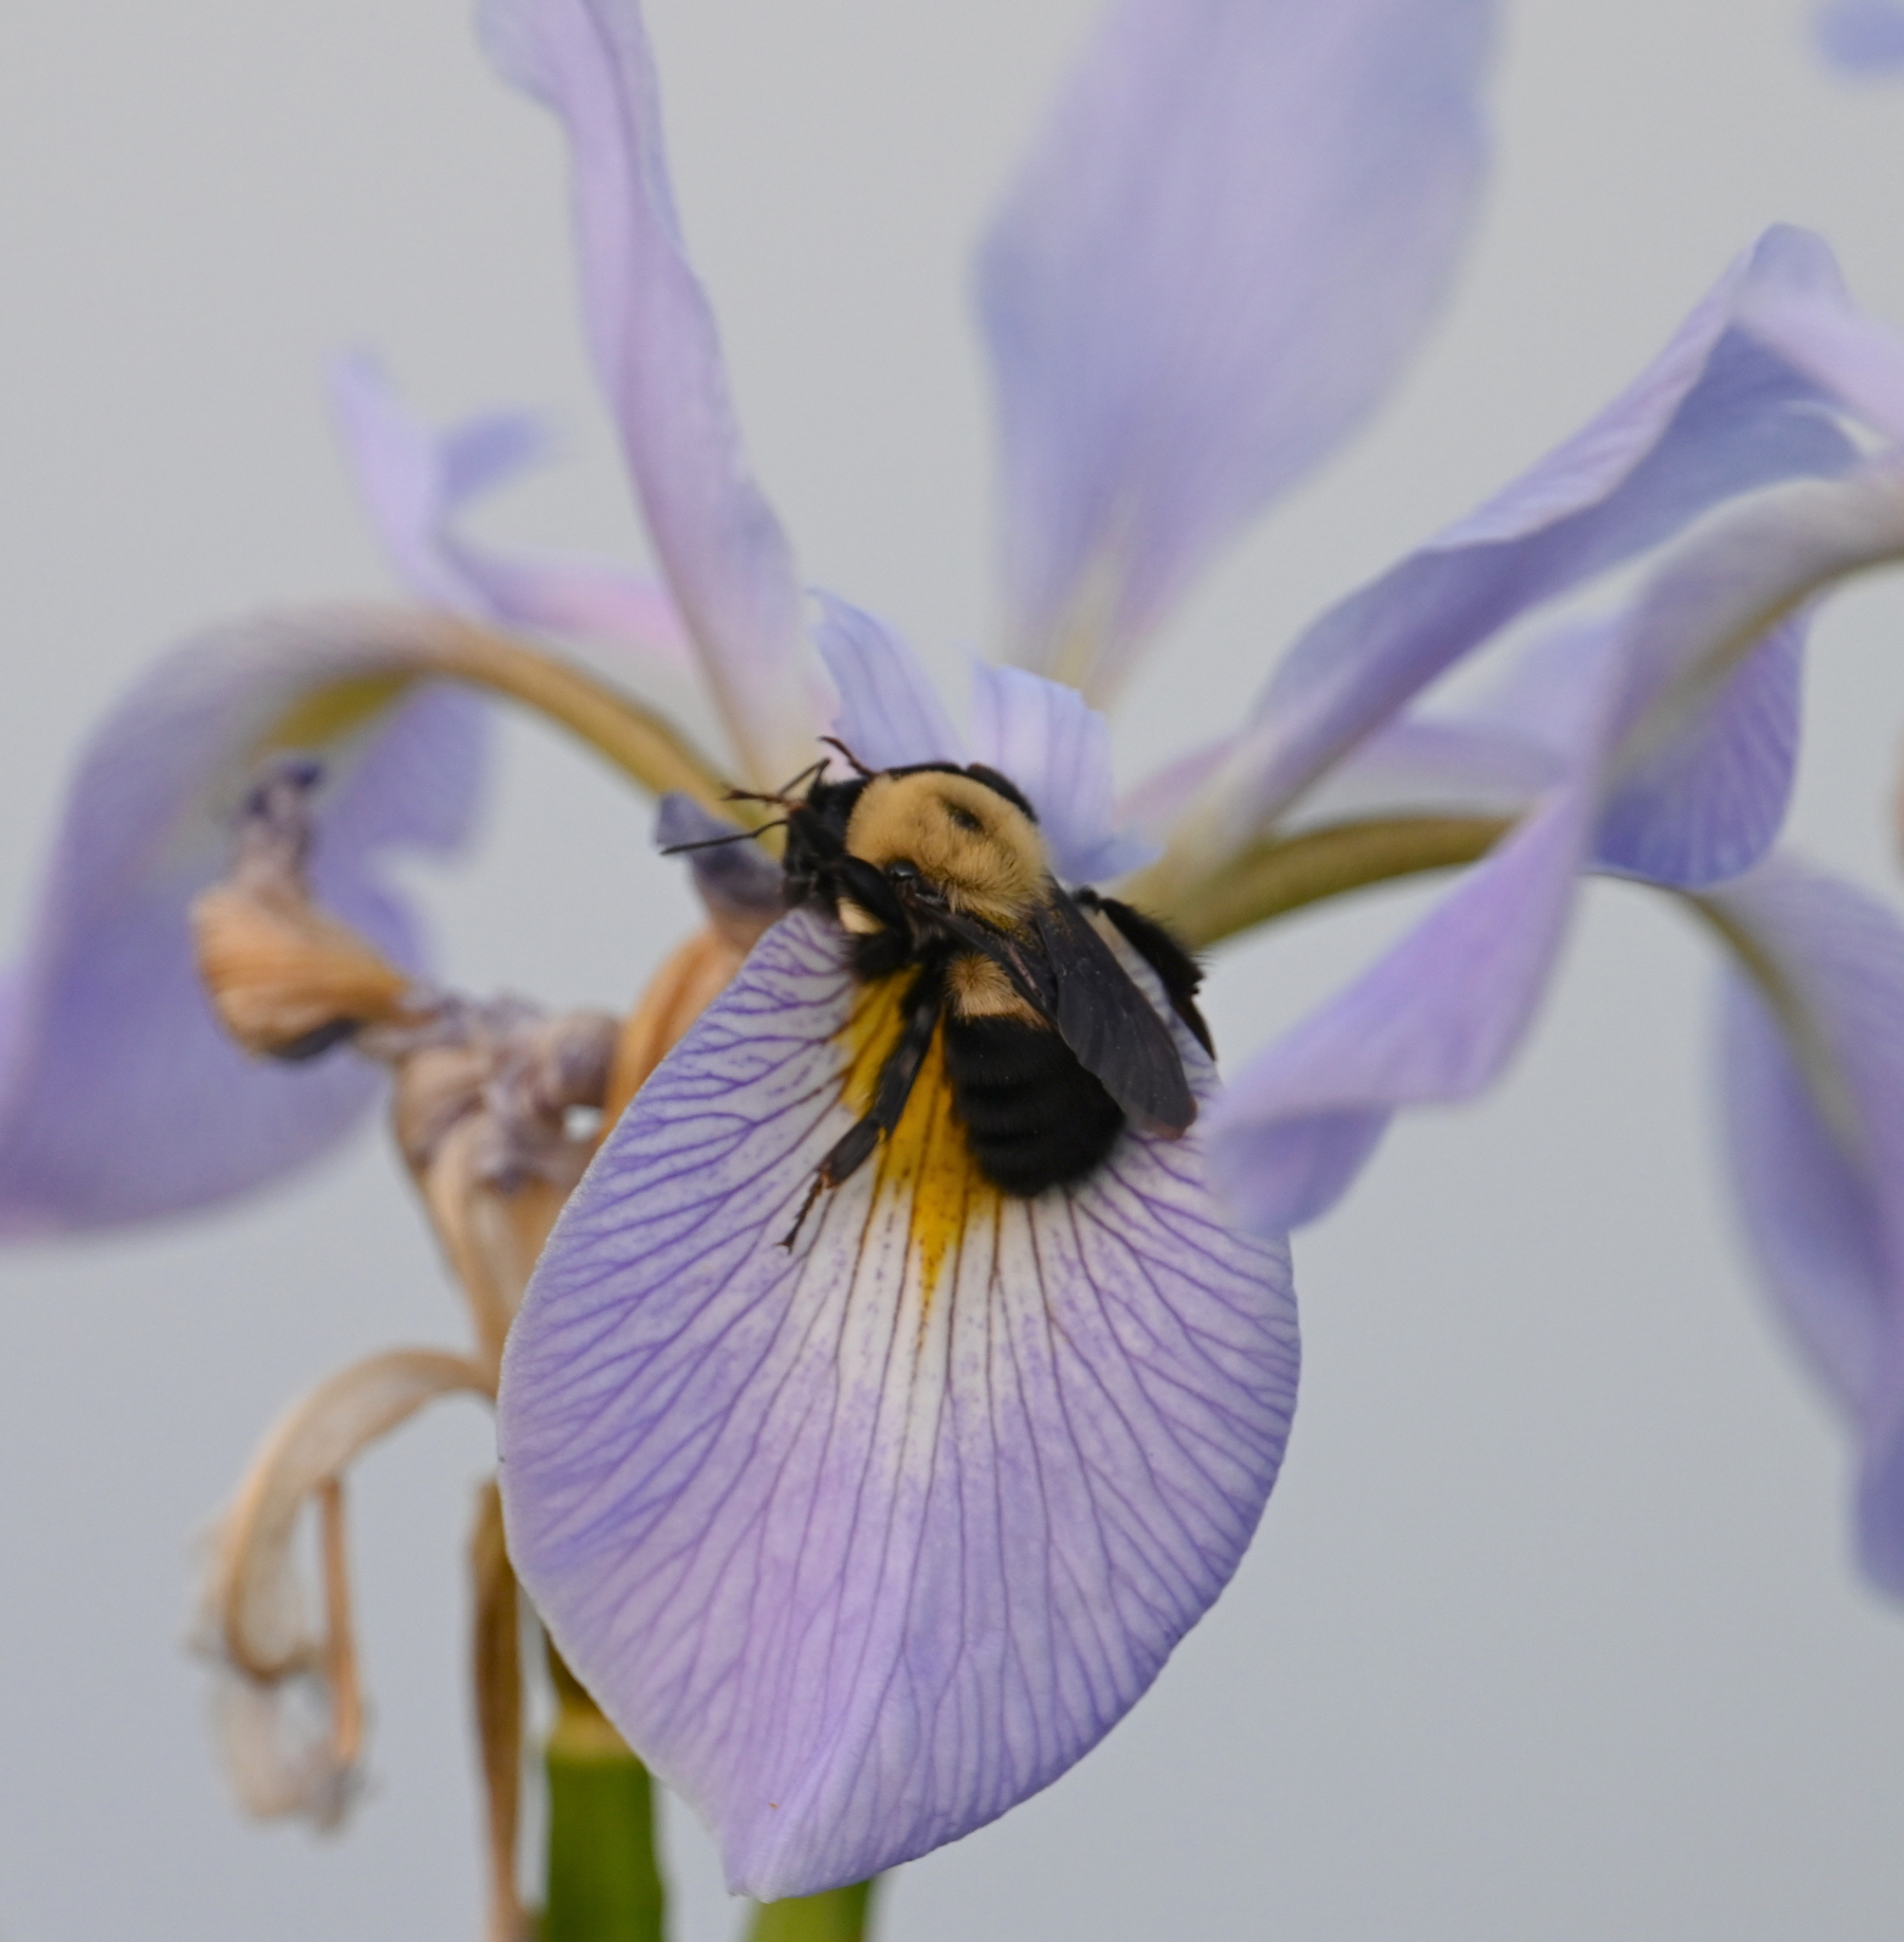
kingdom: Animalia
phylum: Arthropoda
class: Insecta
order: Hymenoptera
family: Apidae
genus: Bombus
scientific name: Bombus griseocollis
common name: Brown-belted bumble bee
